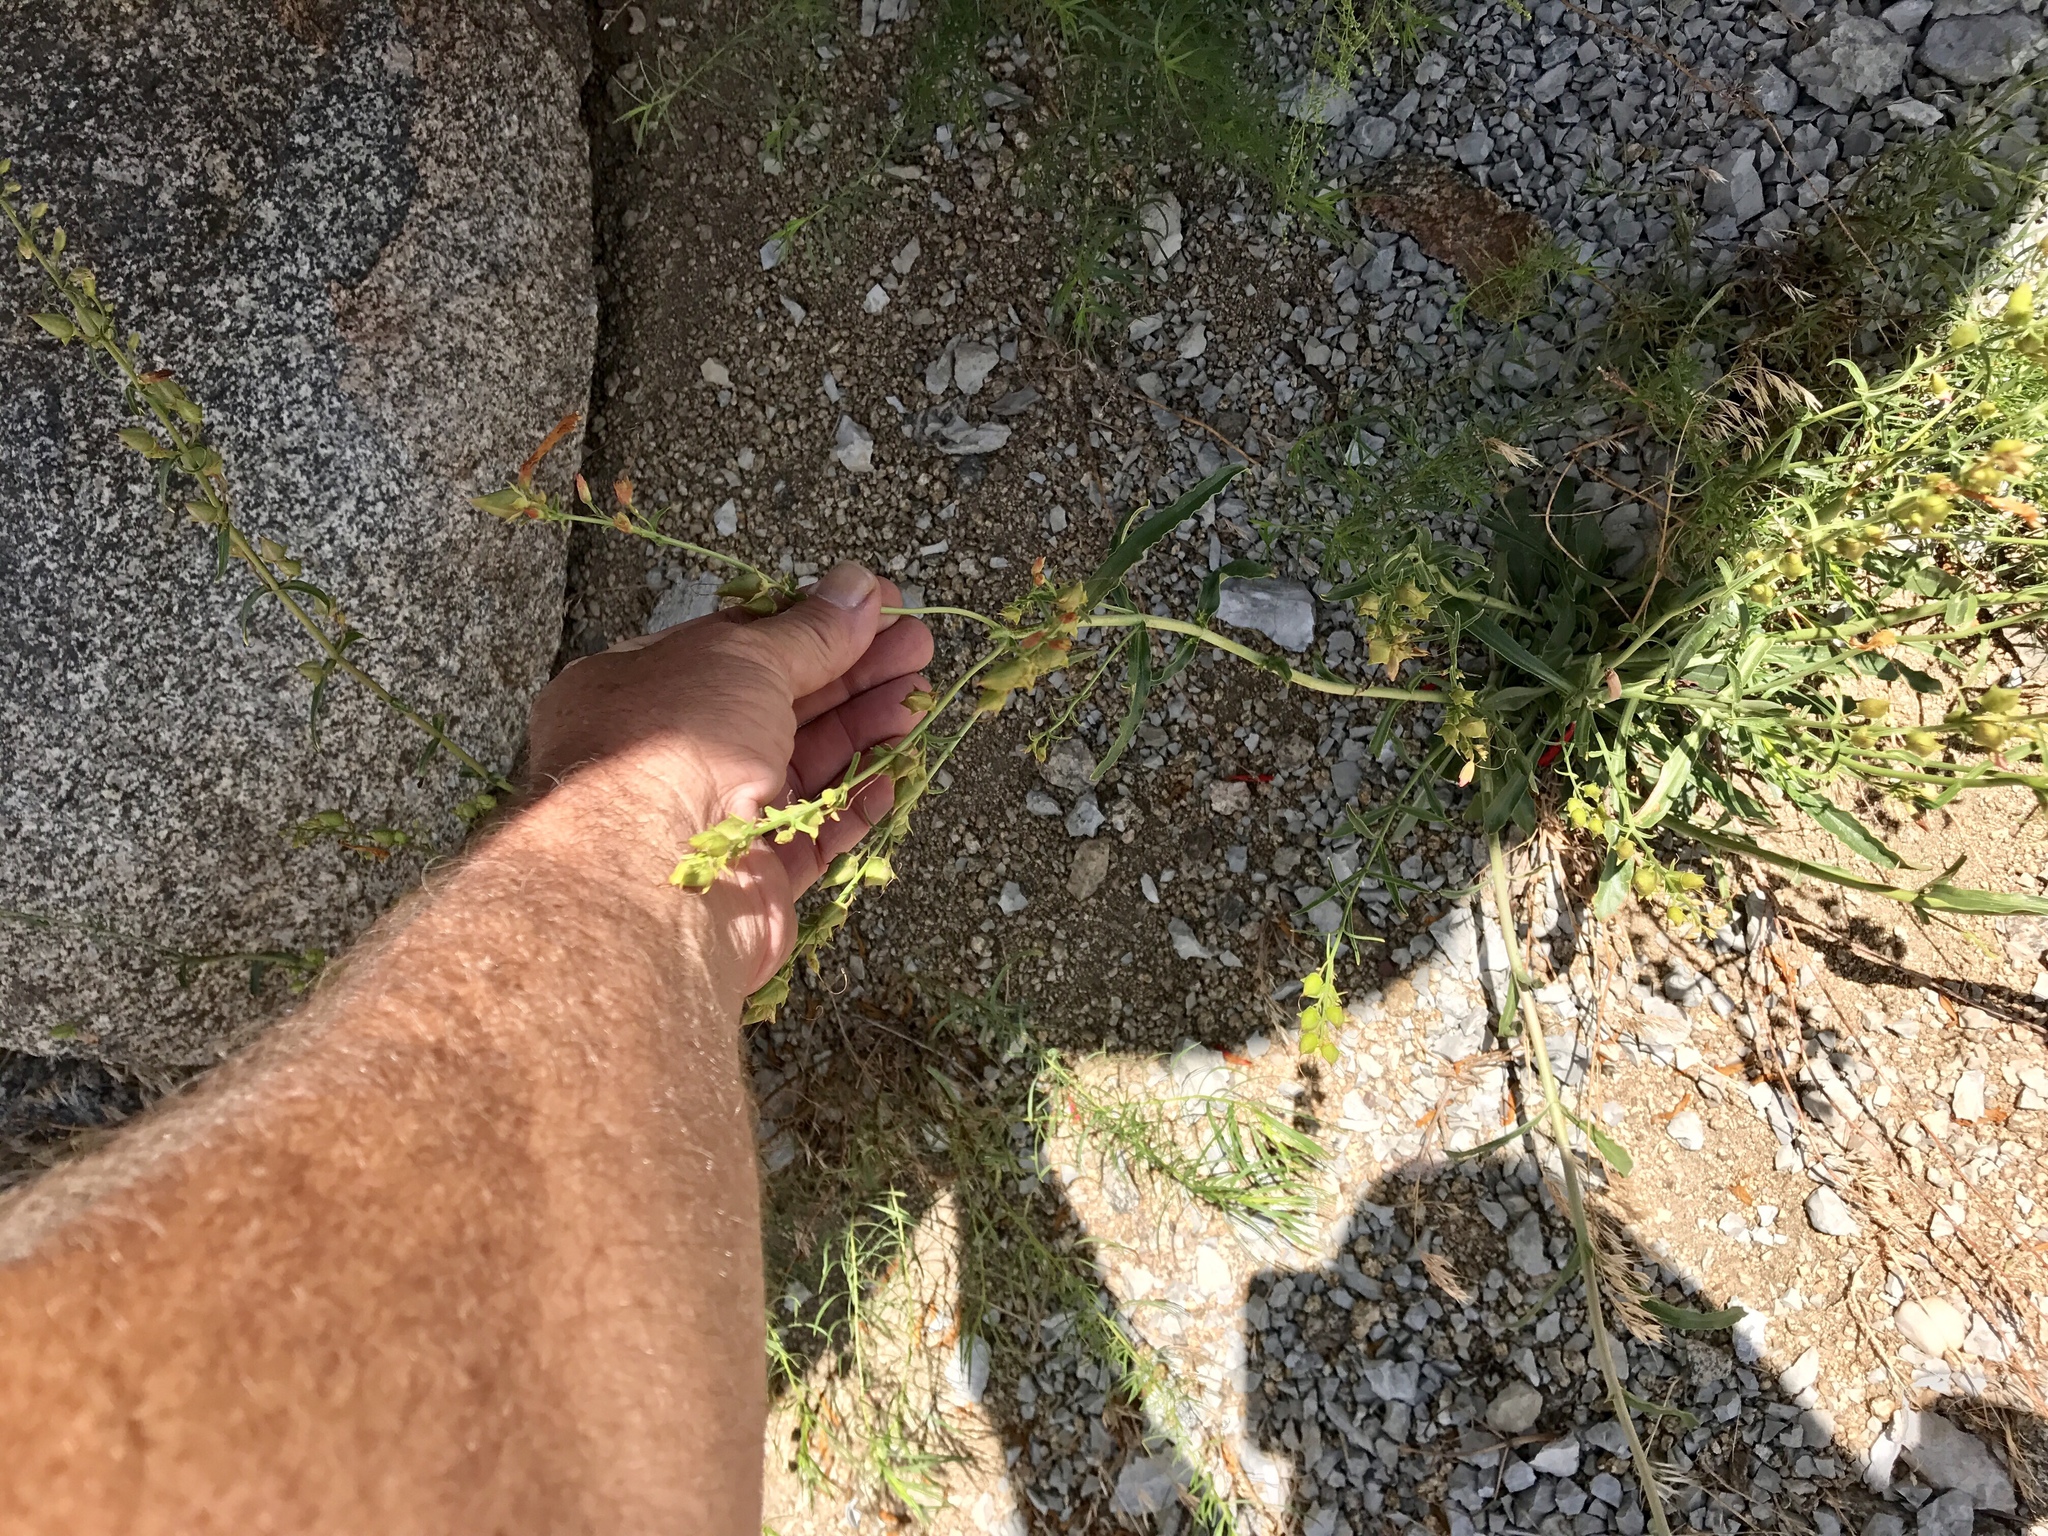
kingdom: Plantae
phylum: Tracheophyta
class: Magnoliopsida
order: Lamiales
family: Plantaginaceae
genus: Penstemon
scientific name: Penstemon
